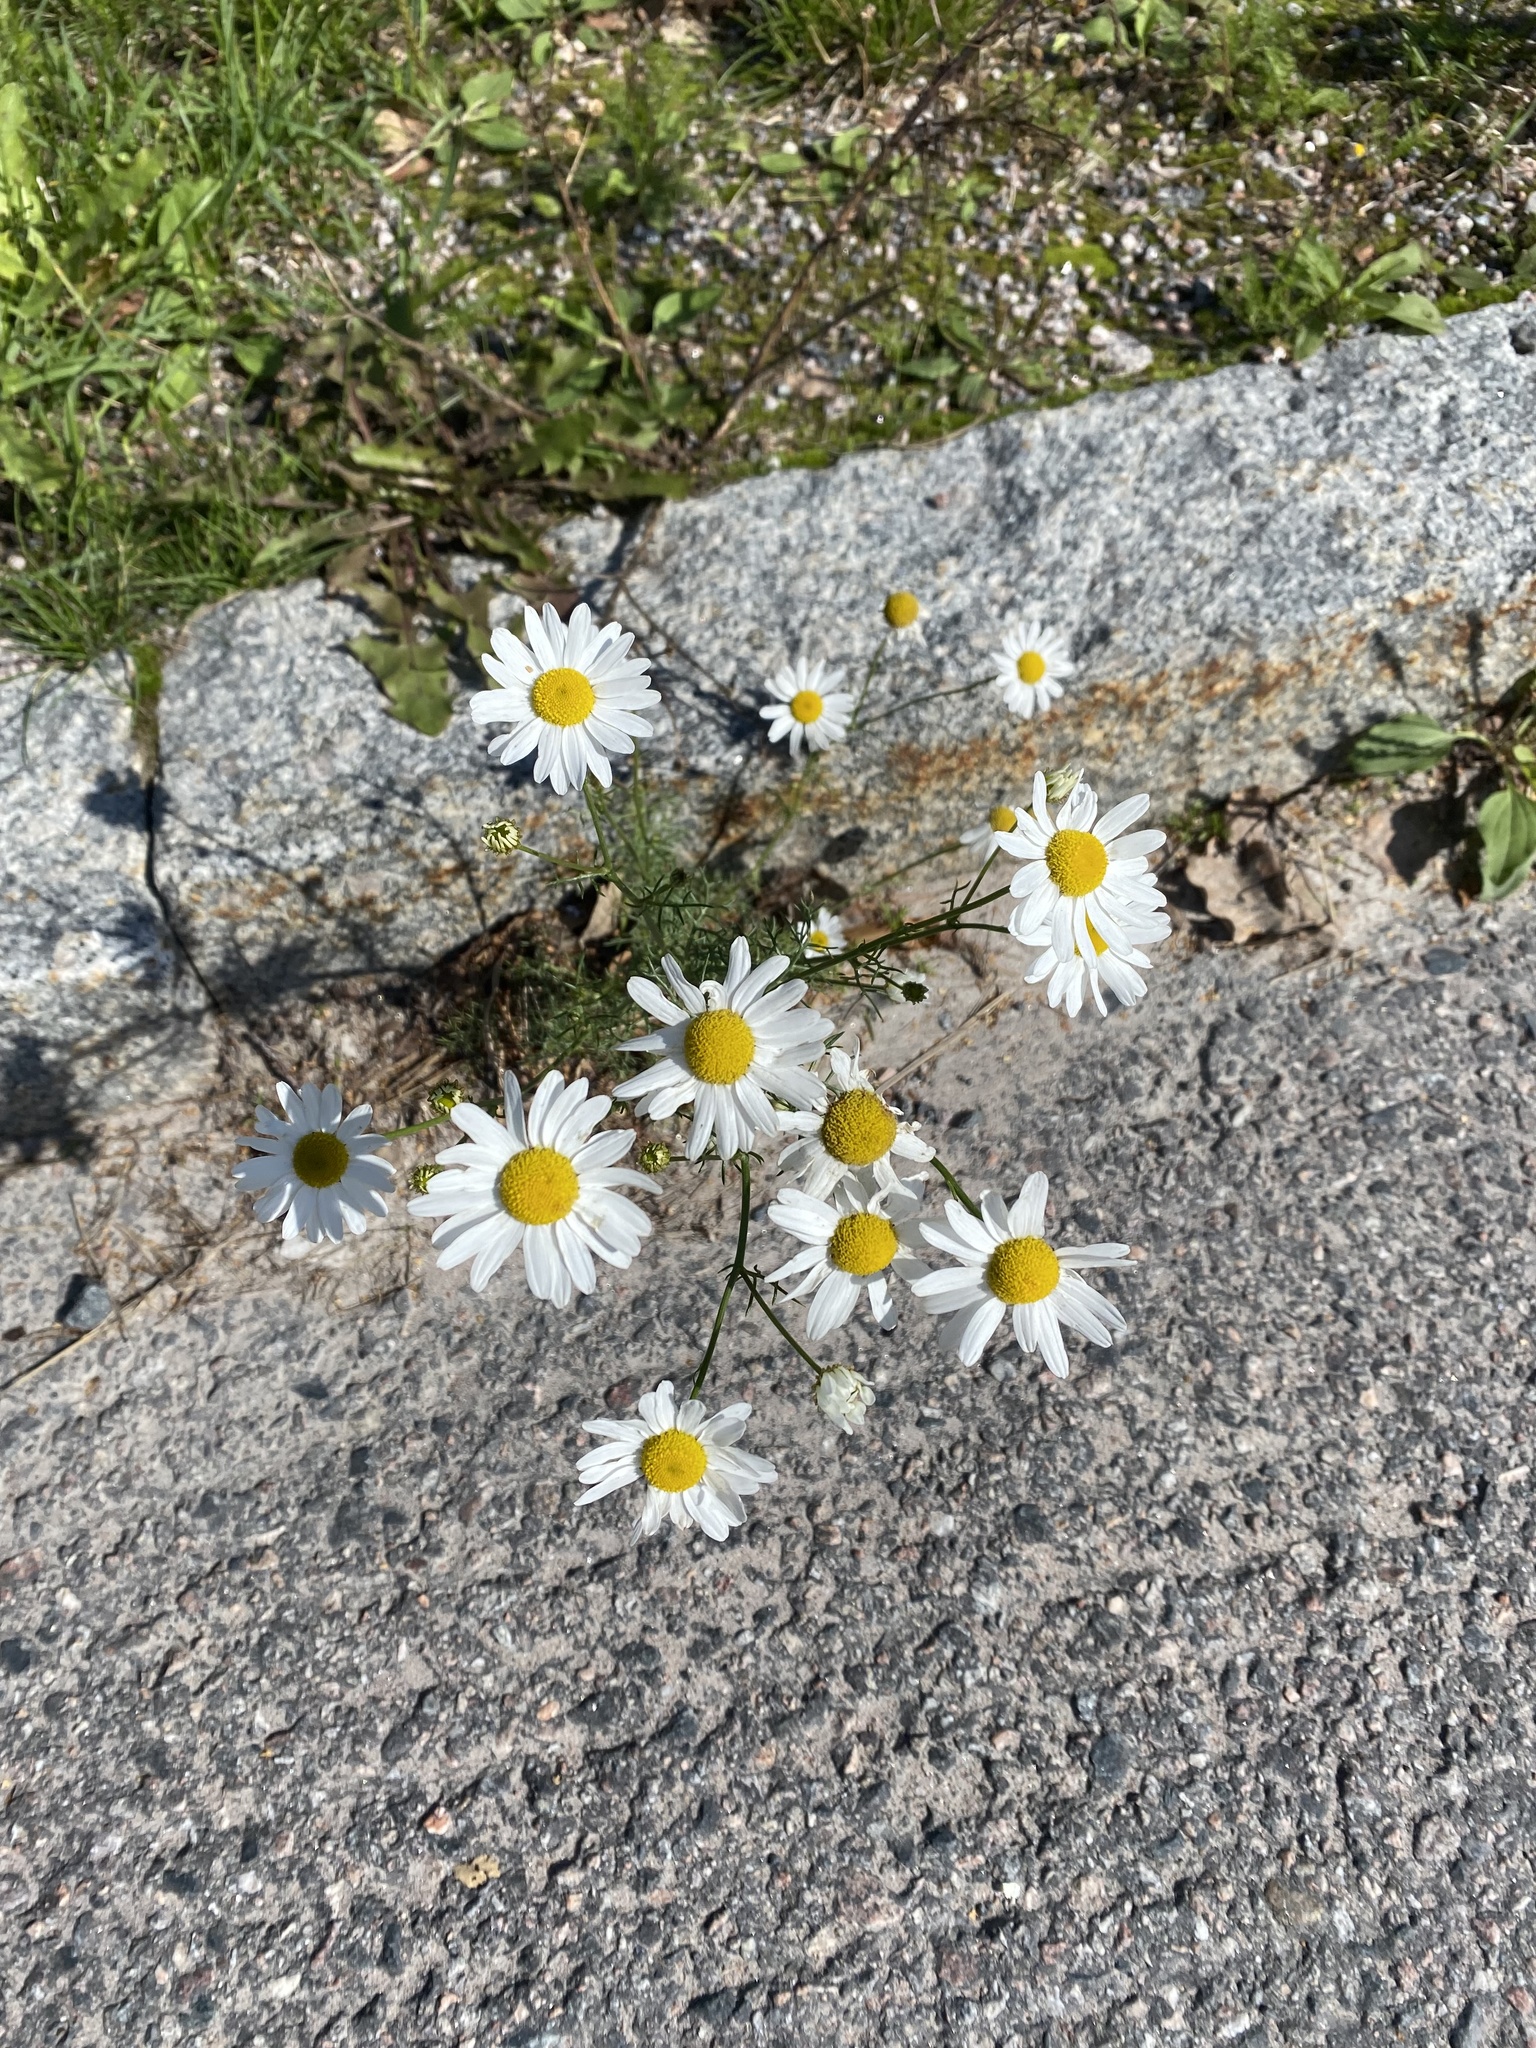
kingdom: Plantae
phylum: Tracheophyta
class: Magnoliopsida
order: Asterales
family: Asteraceae
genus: Tripleurospermum
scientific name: Tripleurospermum inodorum
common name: Scentless mayweed
